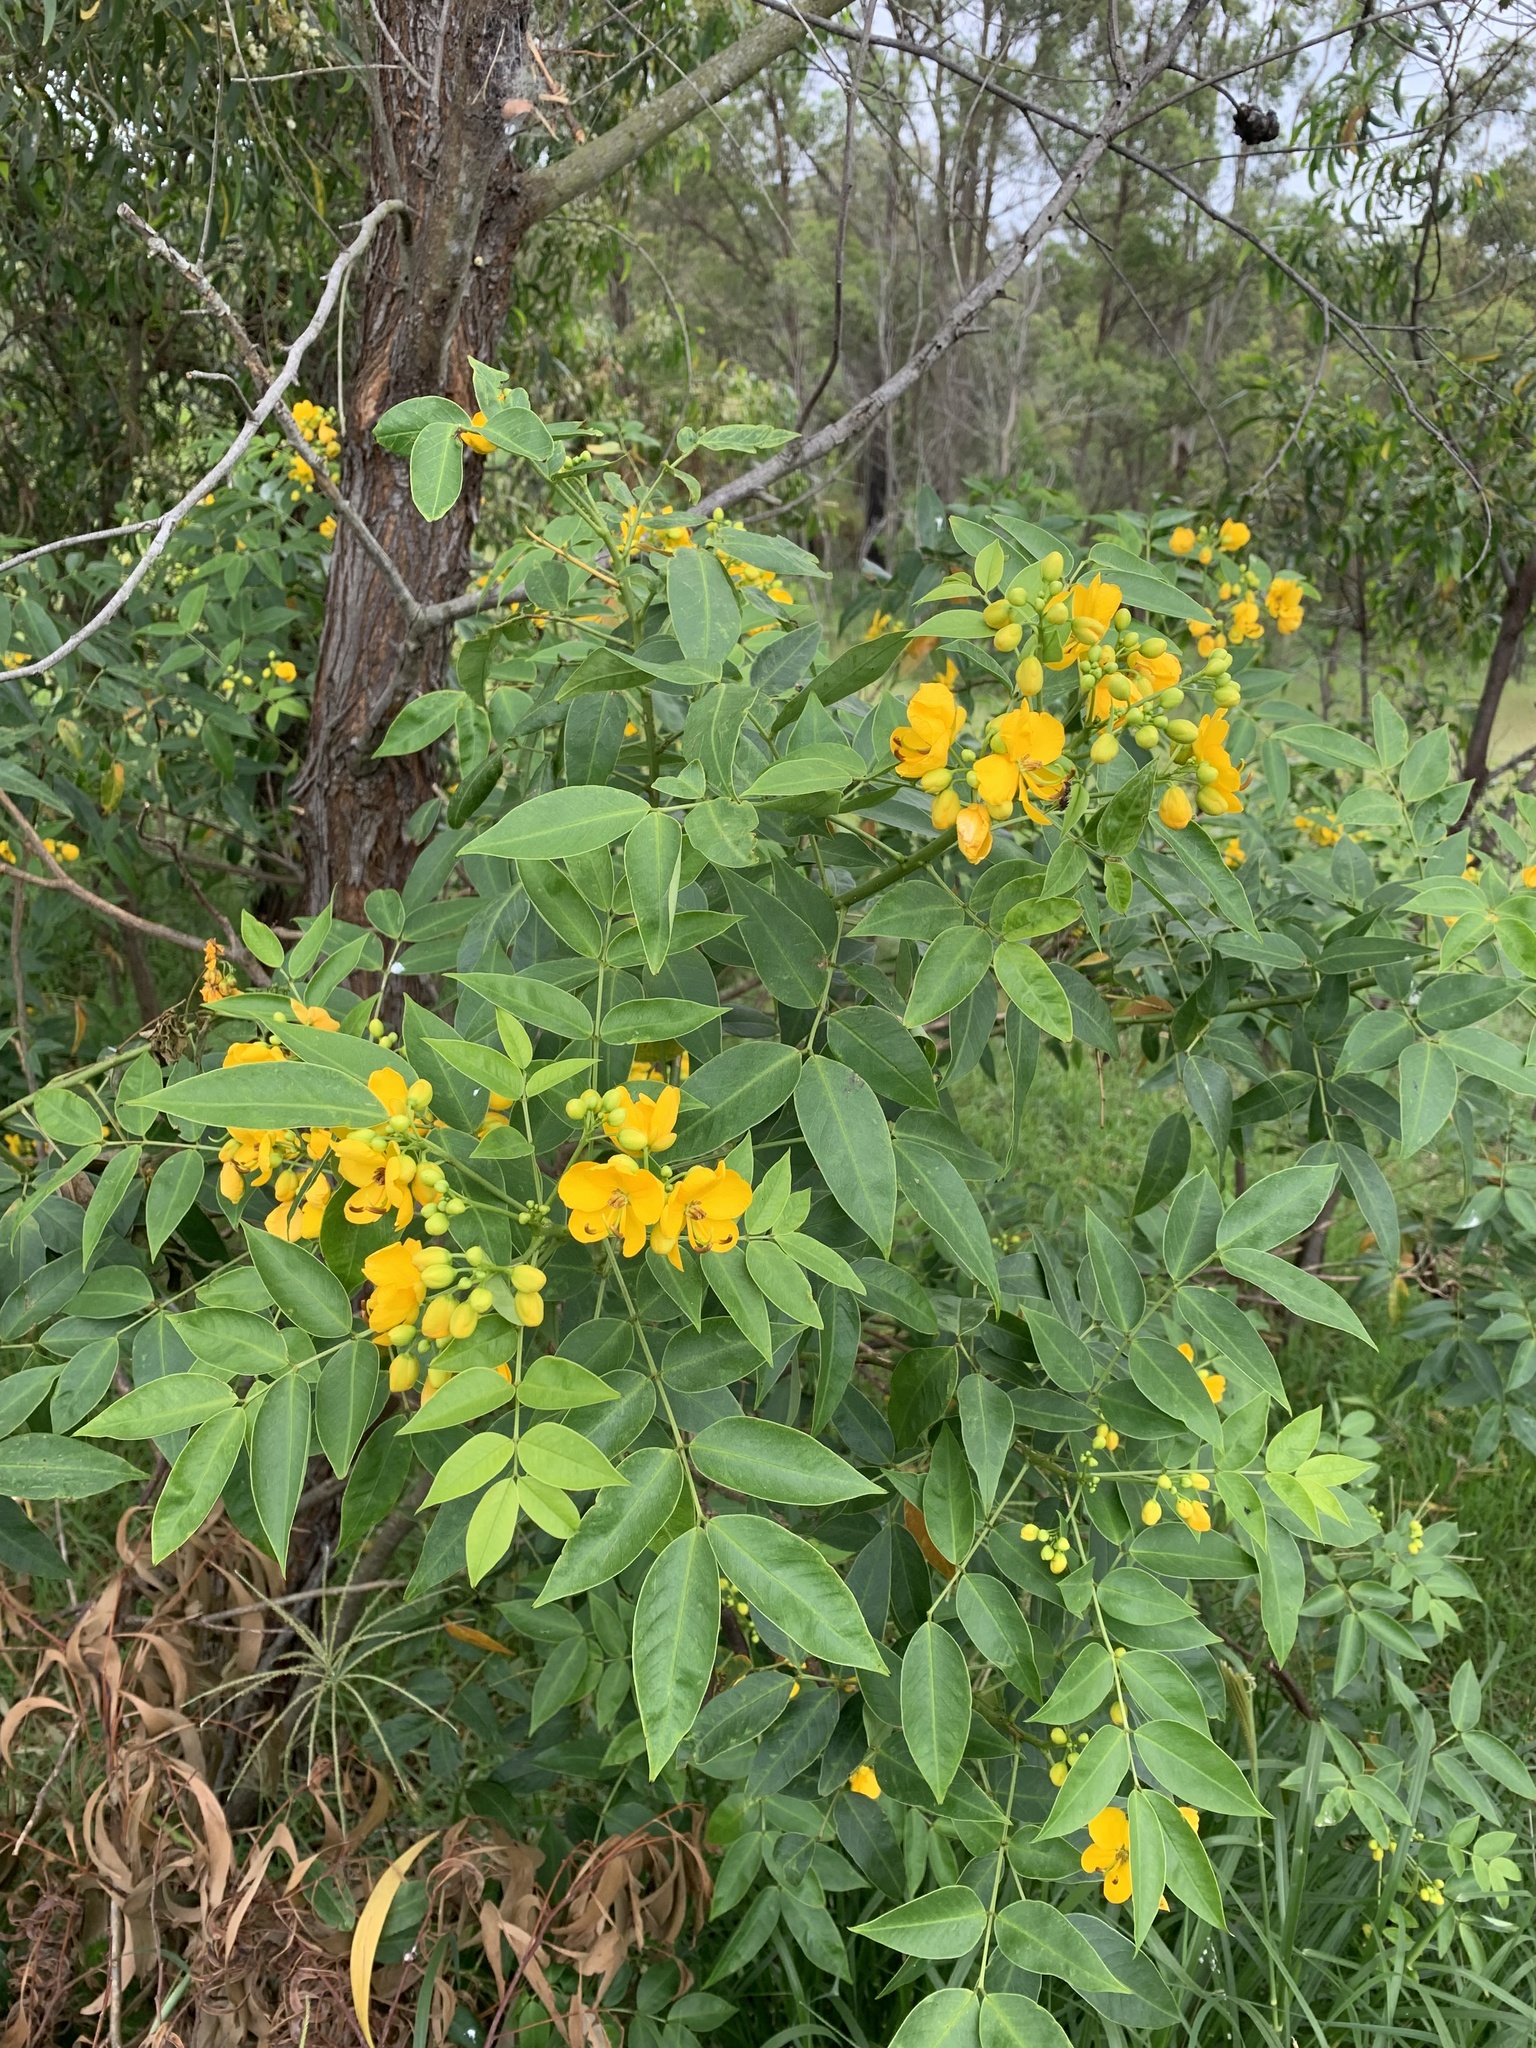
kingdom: Plantae
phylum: Tracheophyta
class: Magnoliopsida
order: Fabales
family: Fabaceae
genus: Senna
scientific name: Senna septemtrionalis
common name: Arsenic bush
